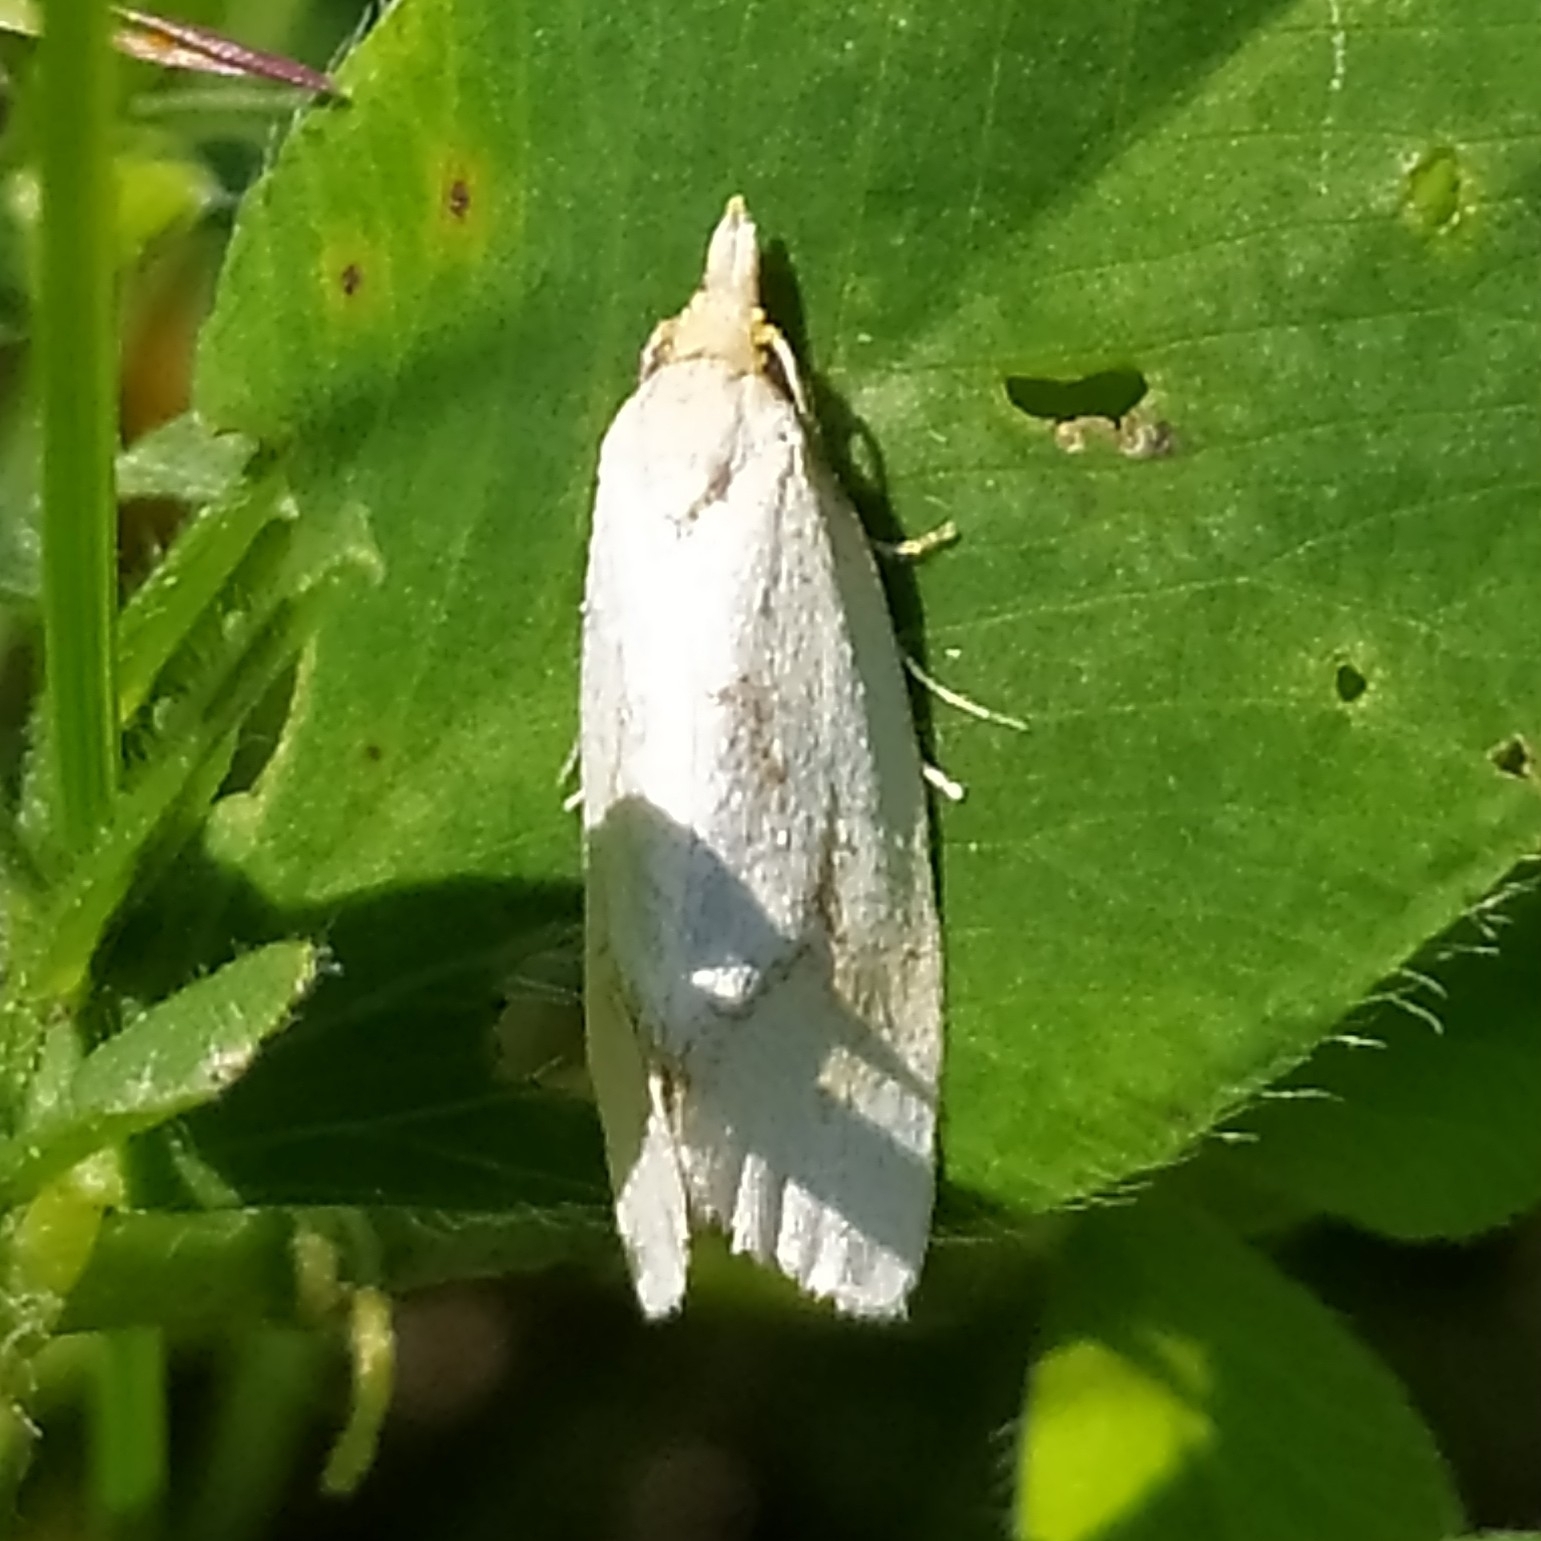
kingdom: Animalia
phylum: Arthropoda
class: Insecta
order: Lepidoptera
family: Tortricidae
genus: Agapeta
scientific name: Agapeta hamana
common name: Common yellow conch
